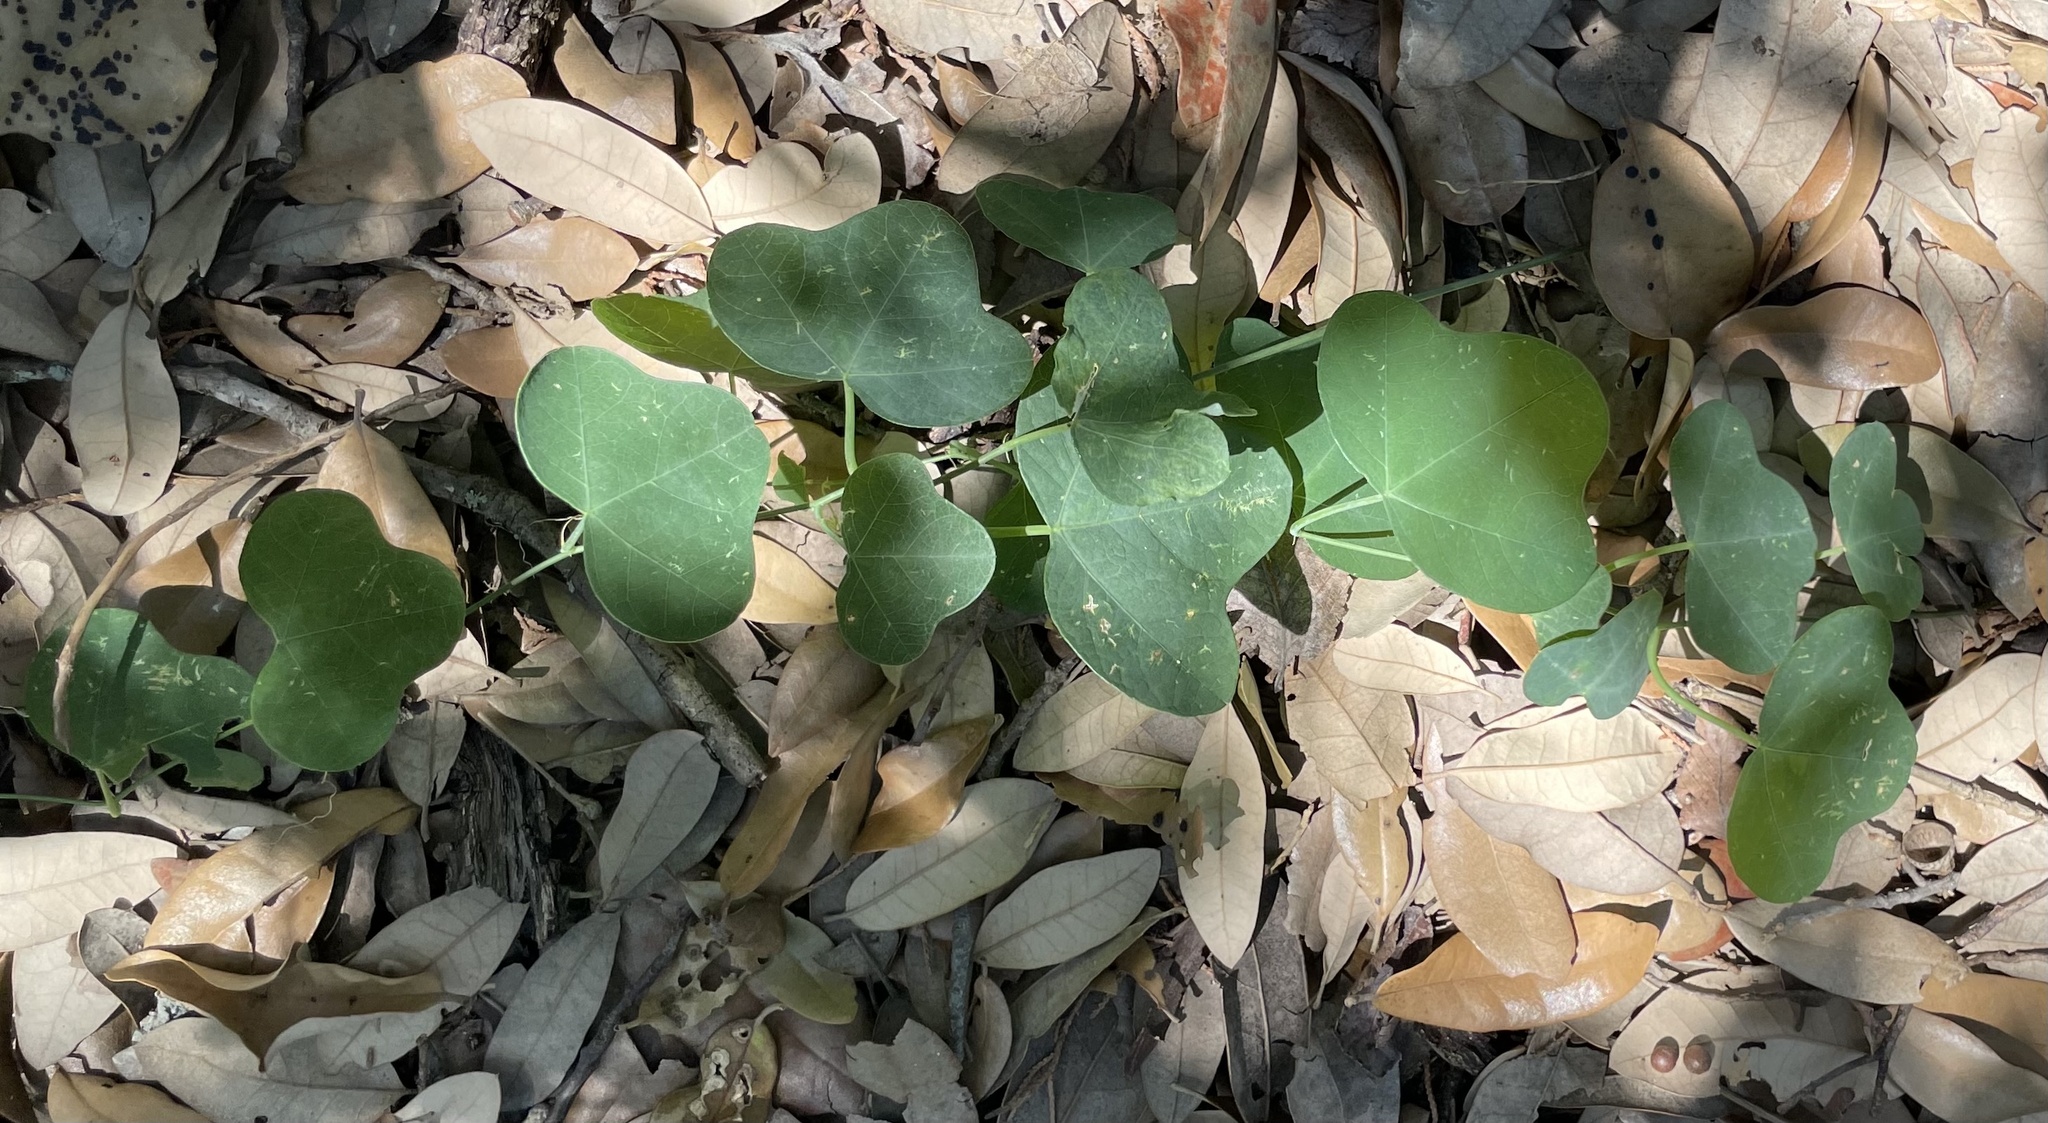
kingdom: Plantae
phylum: Tracheophyta
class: Magnoliopsida
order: Malpighiales
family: Passifloraceae
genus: Passiflora
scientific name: Passiflora lutea
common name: Yellow passionflower
